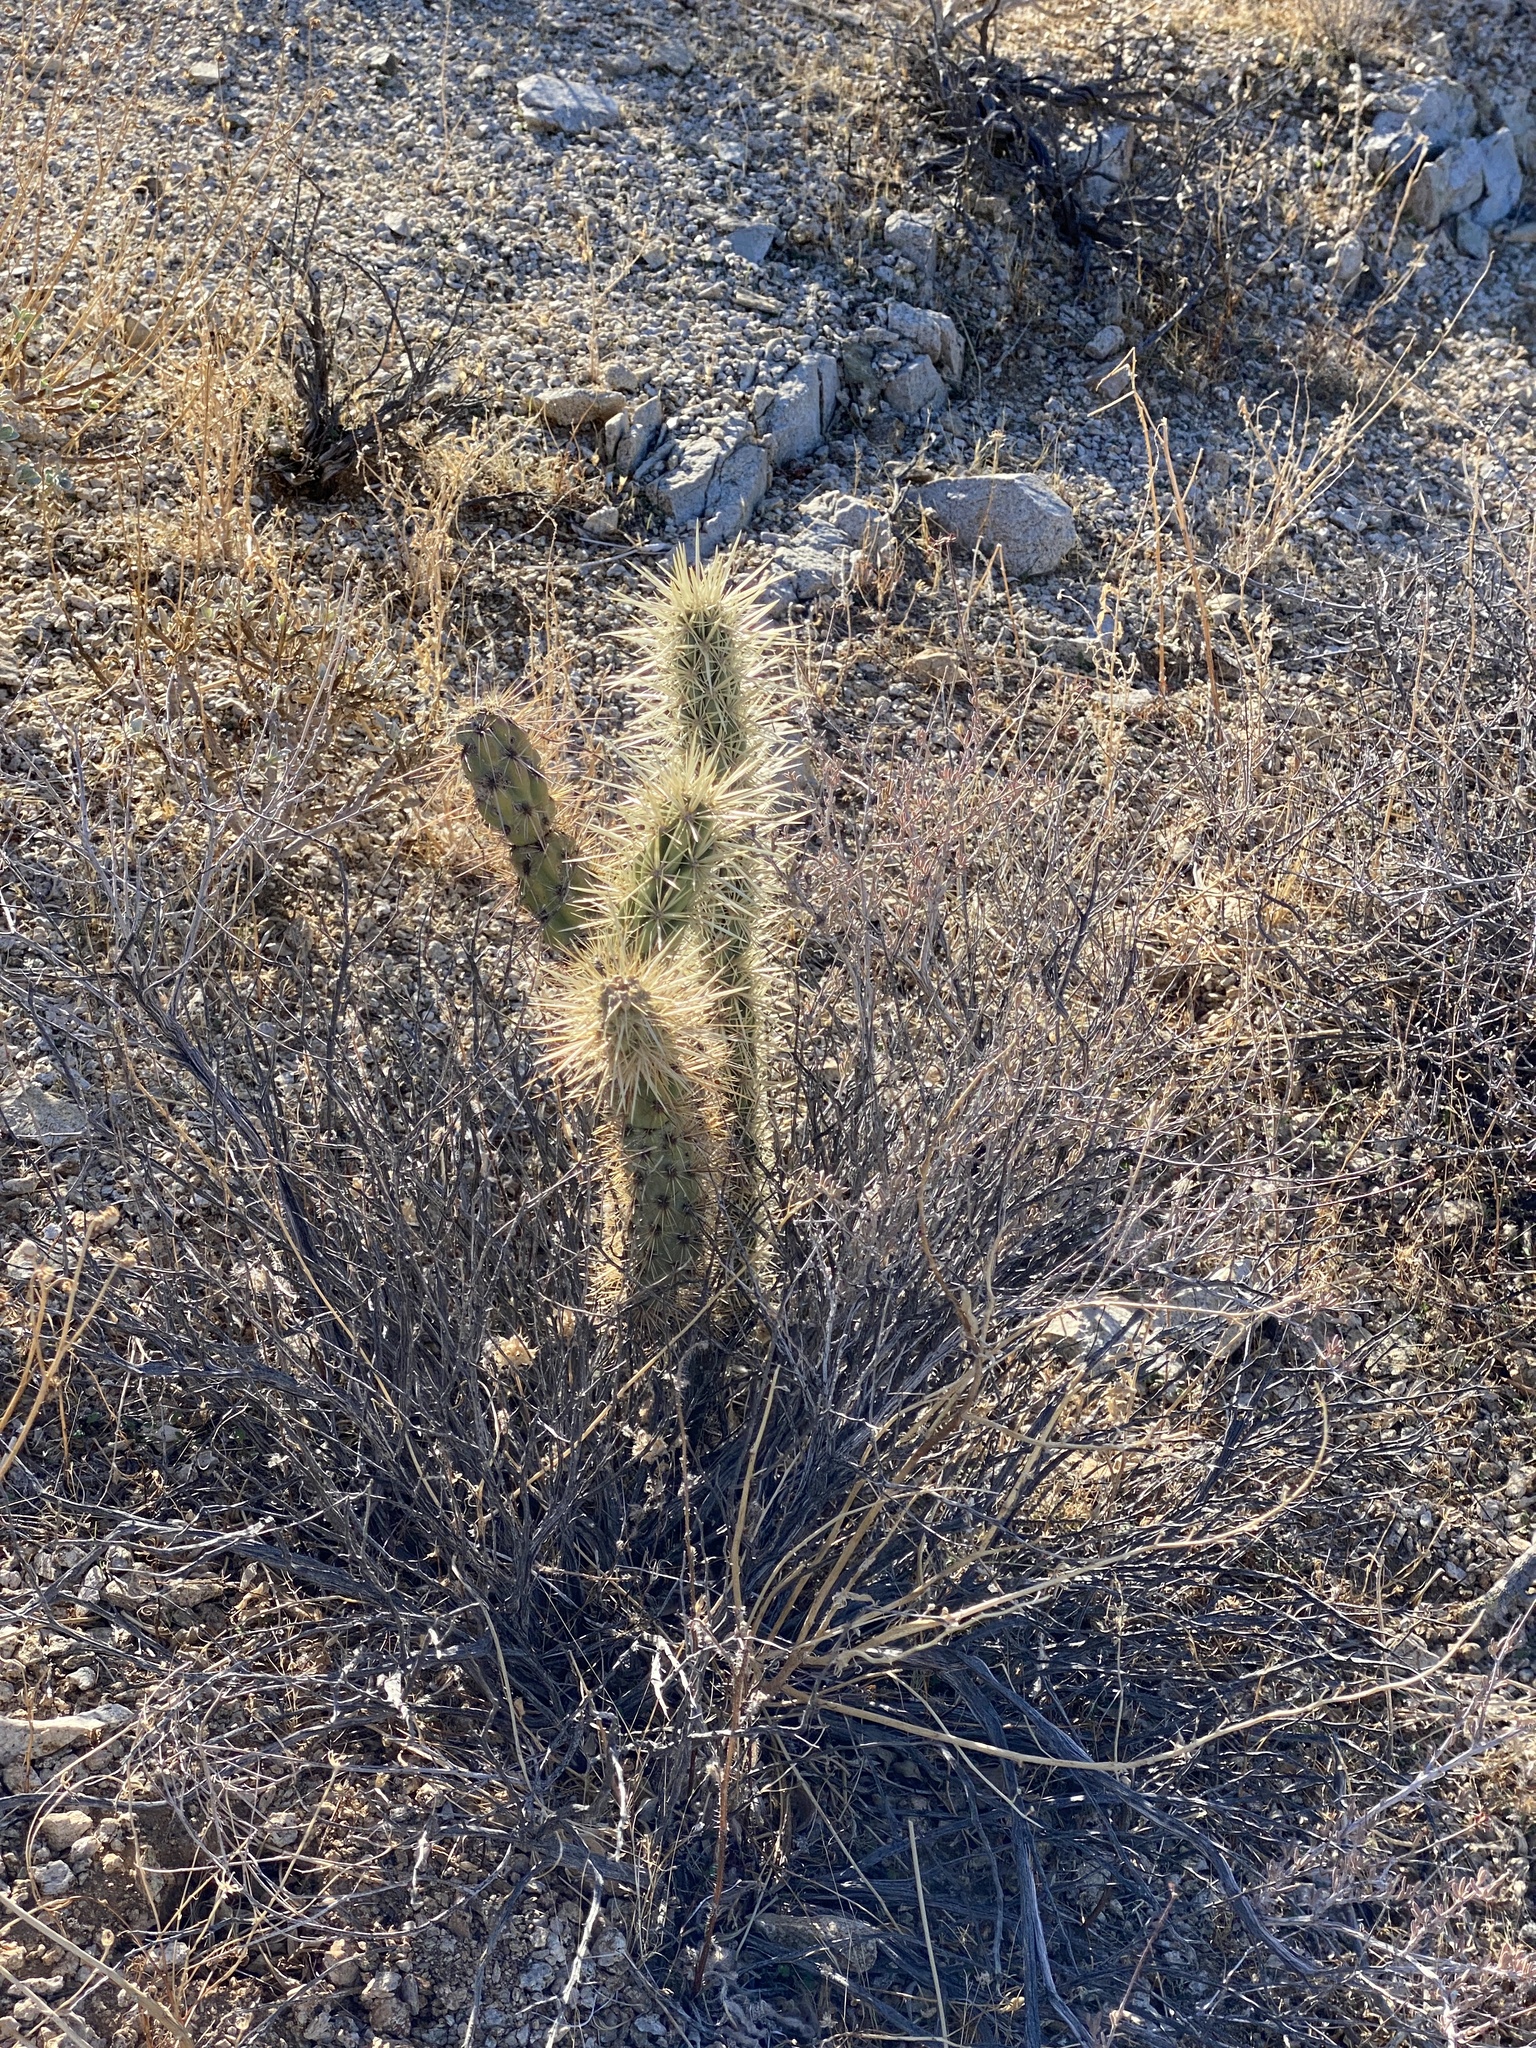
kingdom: Plantae
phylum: Tracheophyta
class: Magnoliopsida
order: Caryophyllales
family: Cactaceae
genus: Cylindropuntia
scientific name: Cylindropuntia acanthocarpa
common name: Buckhorn cholla
